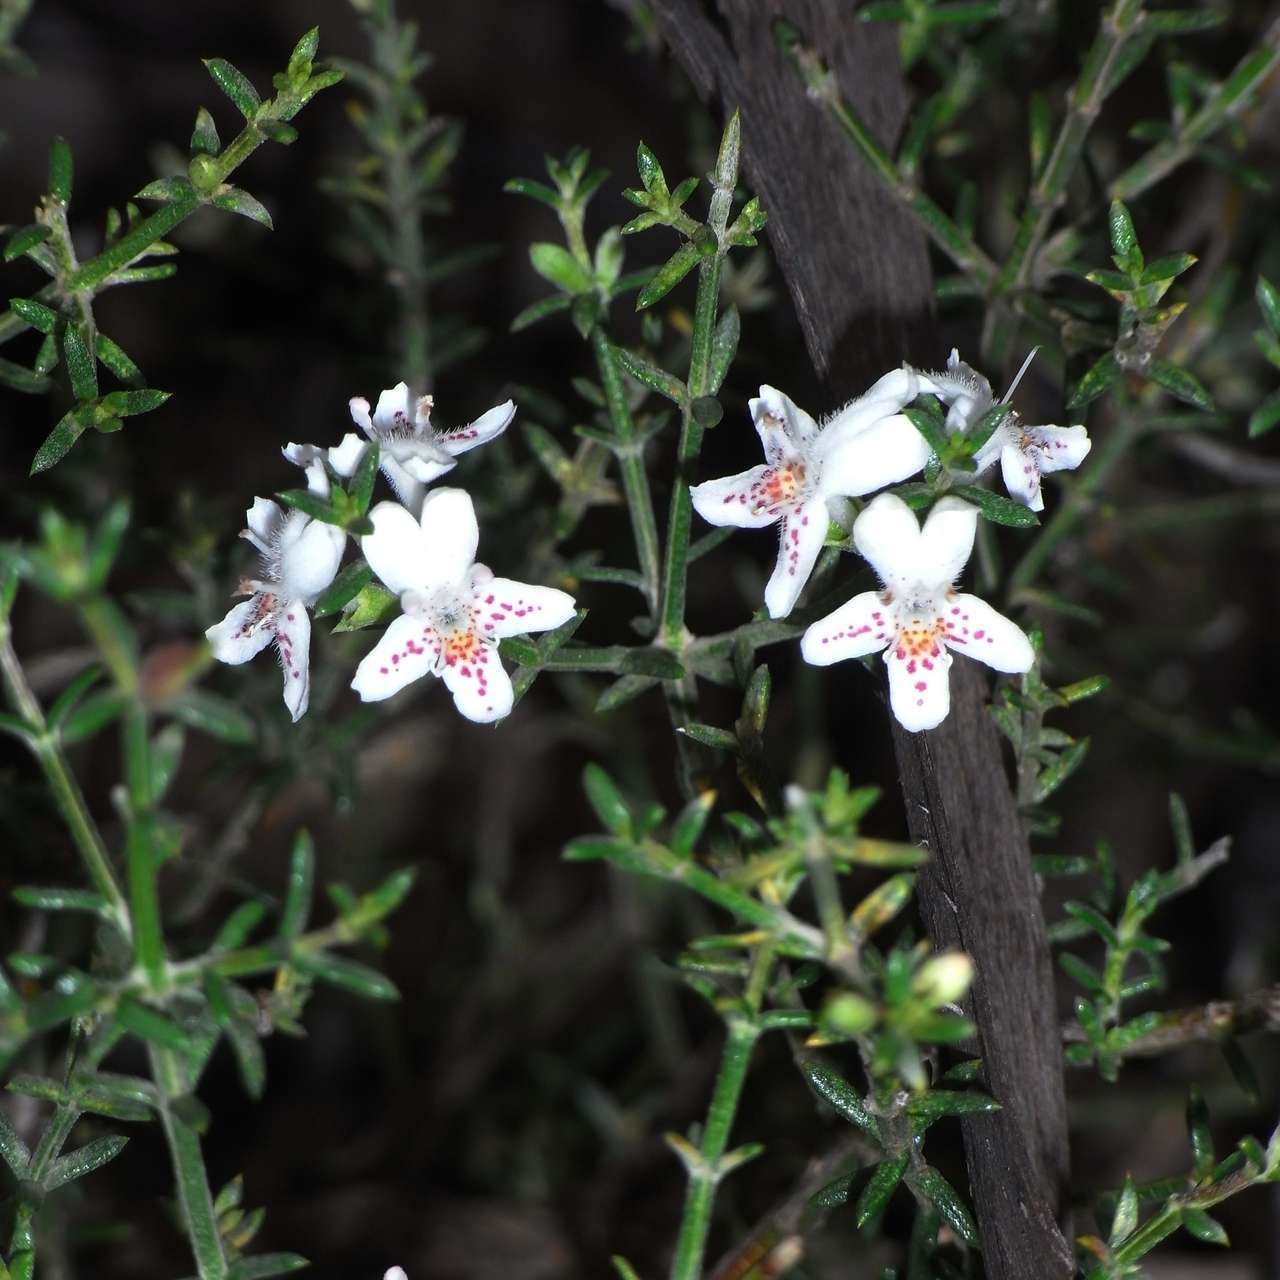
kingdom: Plantae
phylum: Tracheophyta
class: Magnoliopsida
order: Lamiales
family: Lamiaceae
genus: Westringia
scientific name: Westringia rigida
